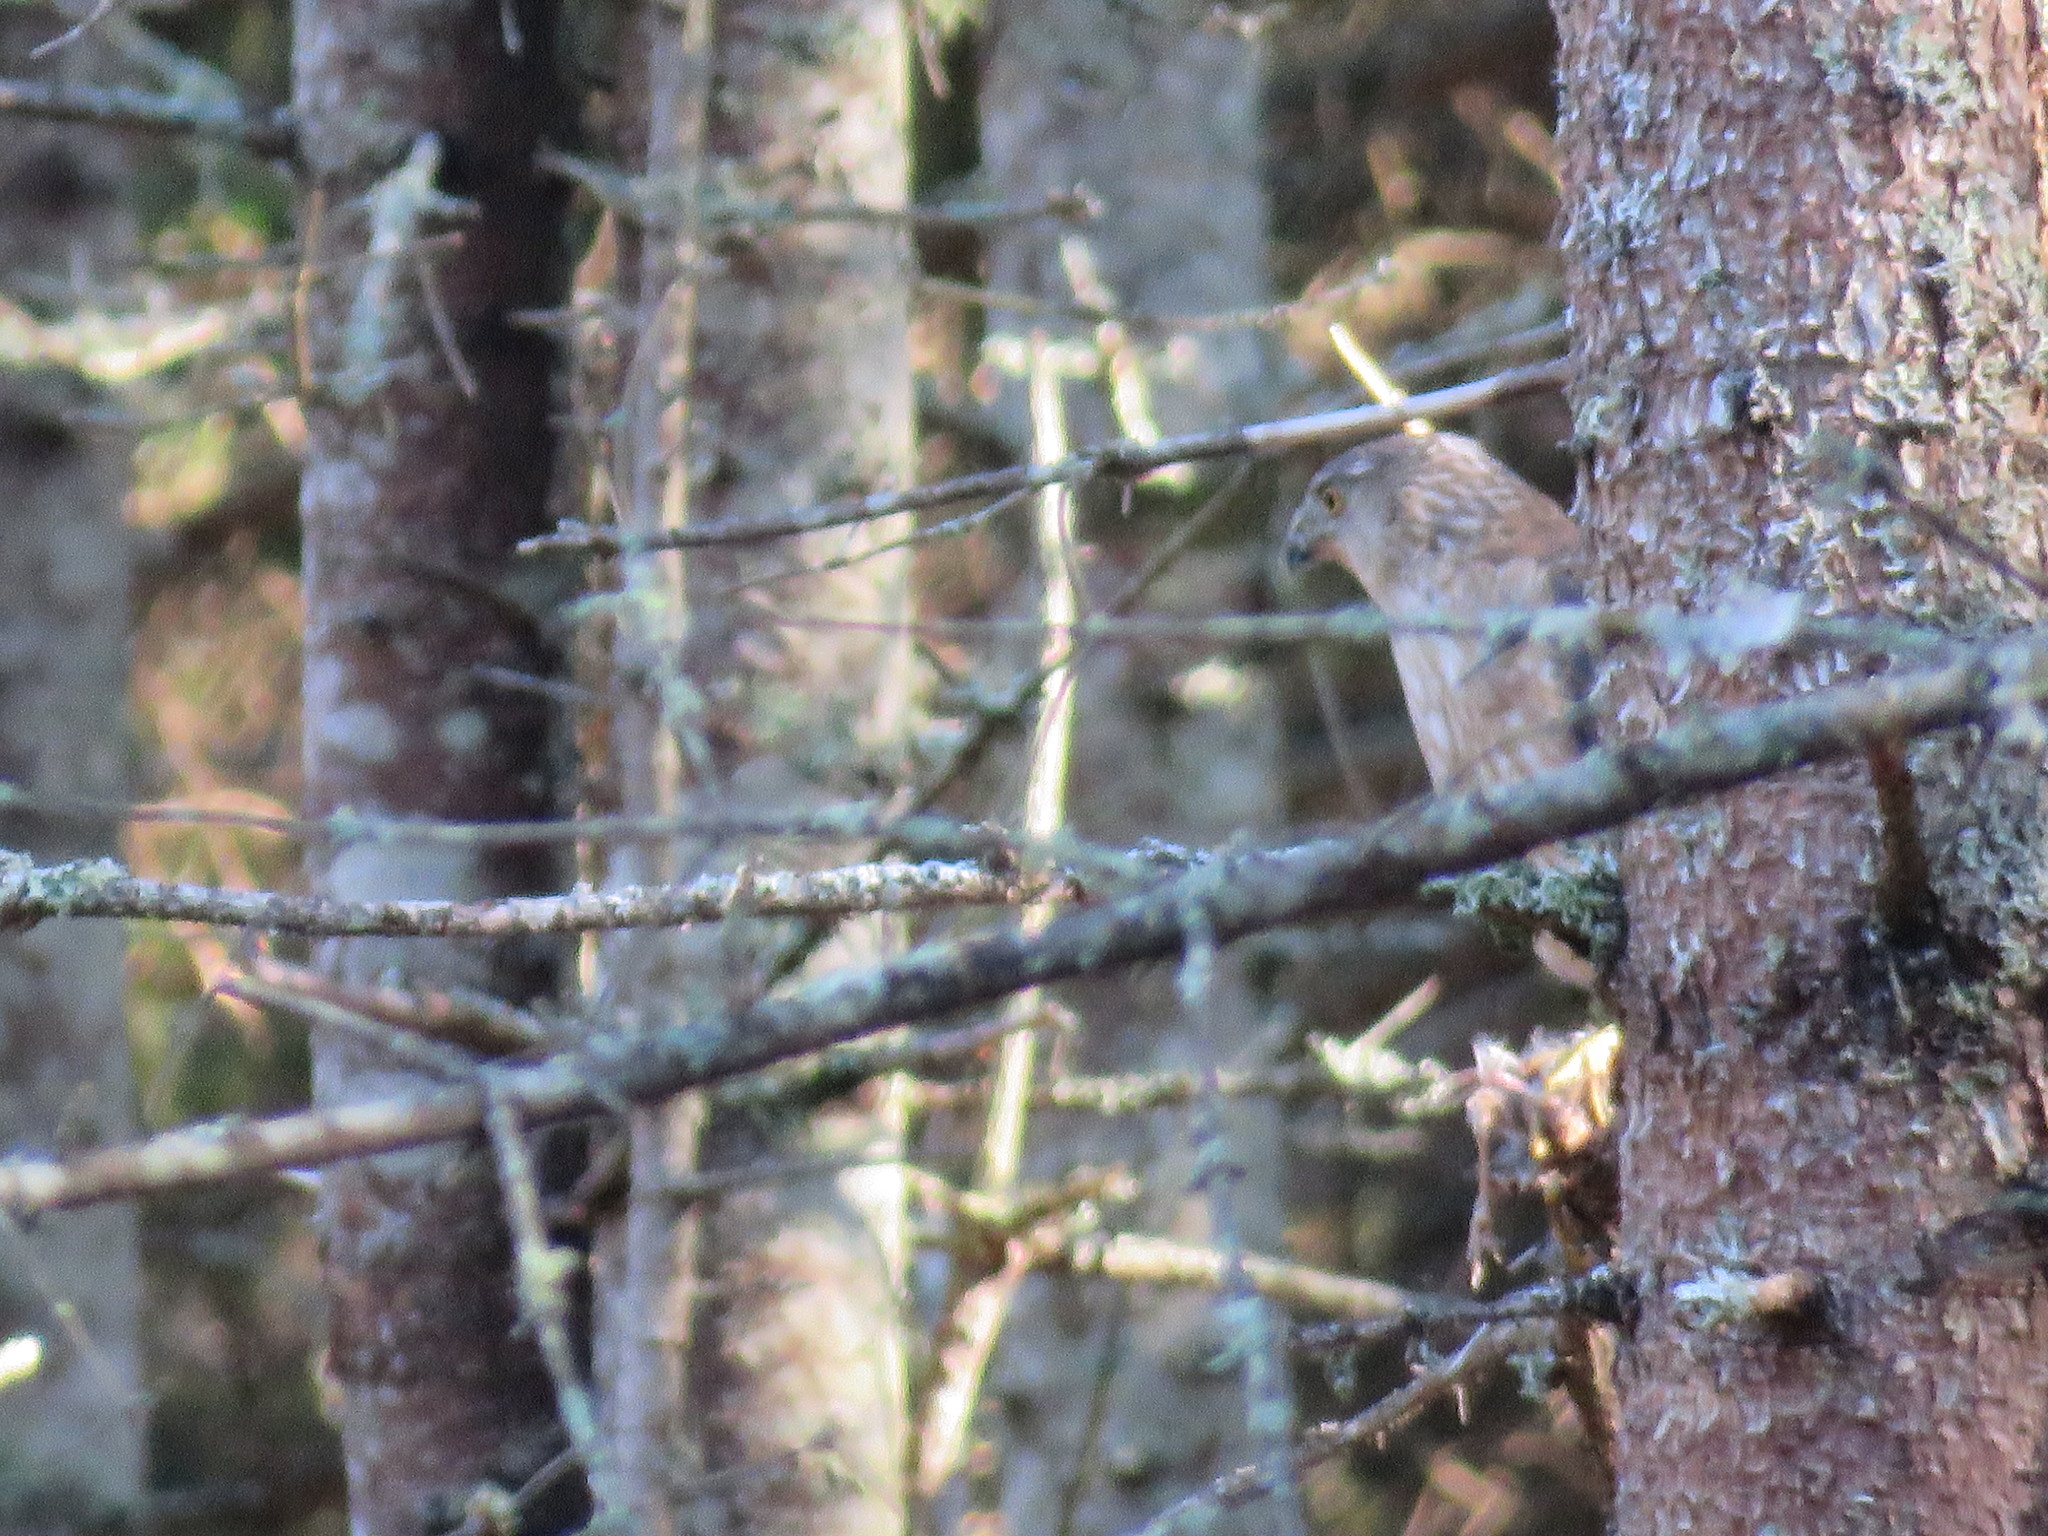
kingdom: Animalia
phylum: Chordata
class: Aves
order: Accipitriformes
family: Accipitridae
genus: Accipiter
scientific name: Accipiter cooperii
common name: Cooper's hawk
